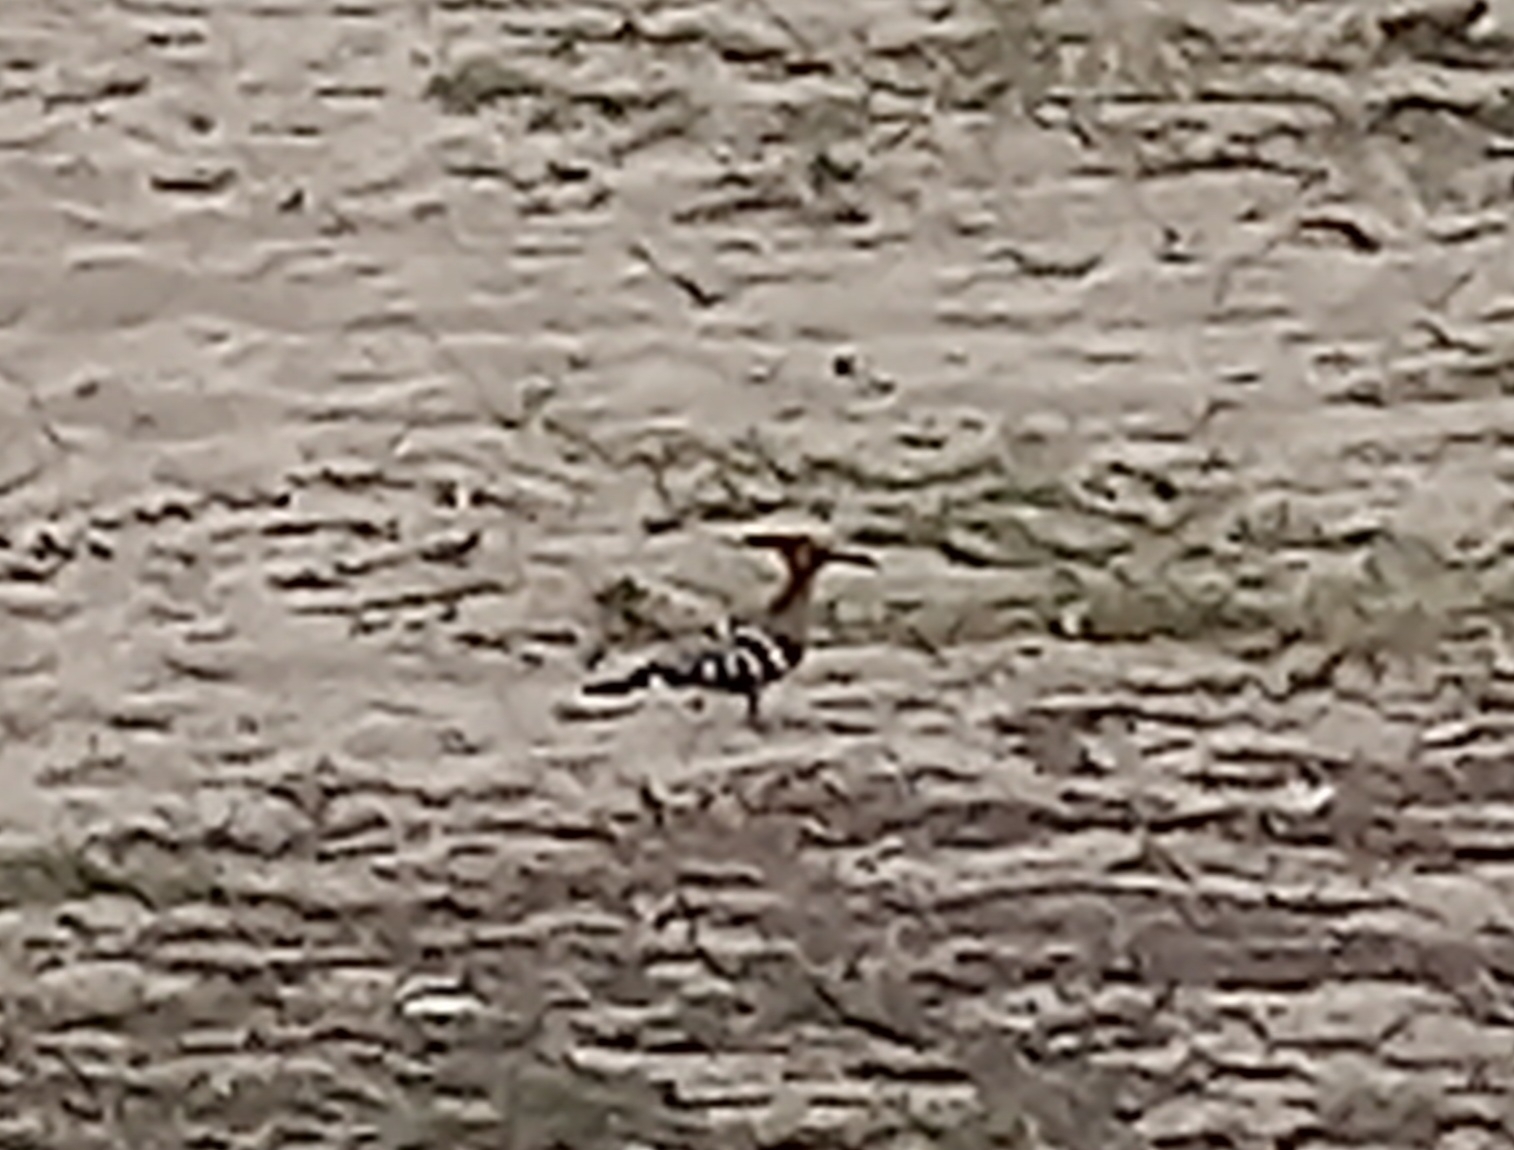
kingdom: Animalia
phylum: Chordata
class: Aves
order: Bucerotiformes
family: Upupidae
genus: Upupa
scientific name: Upupa epops
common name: Eurasian hoopoe
